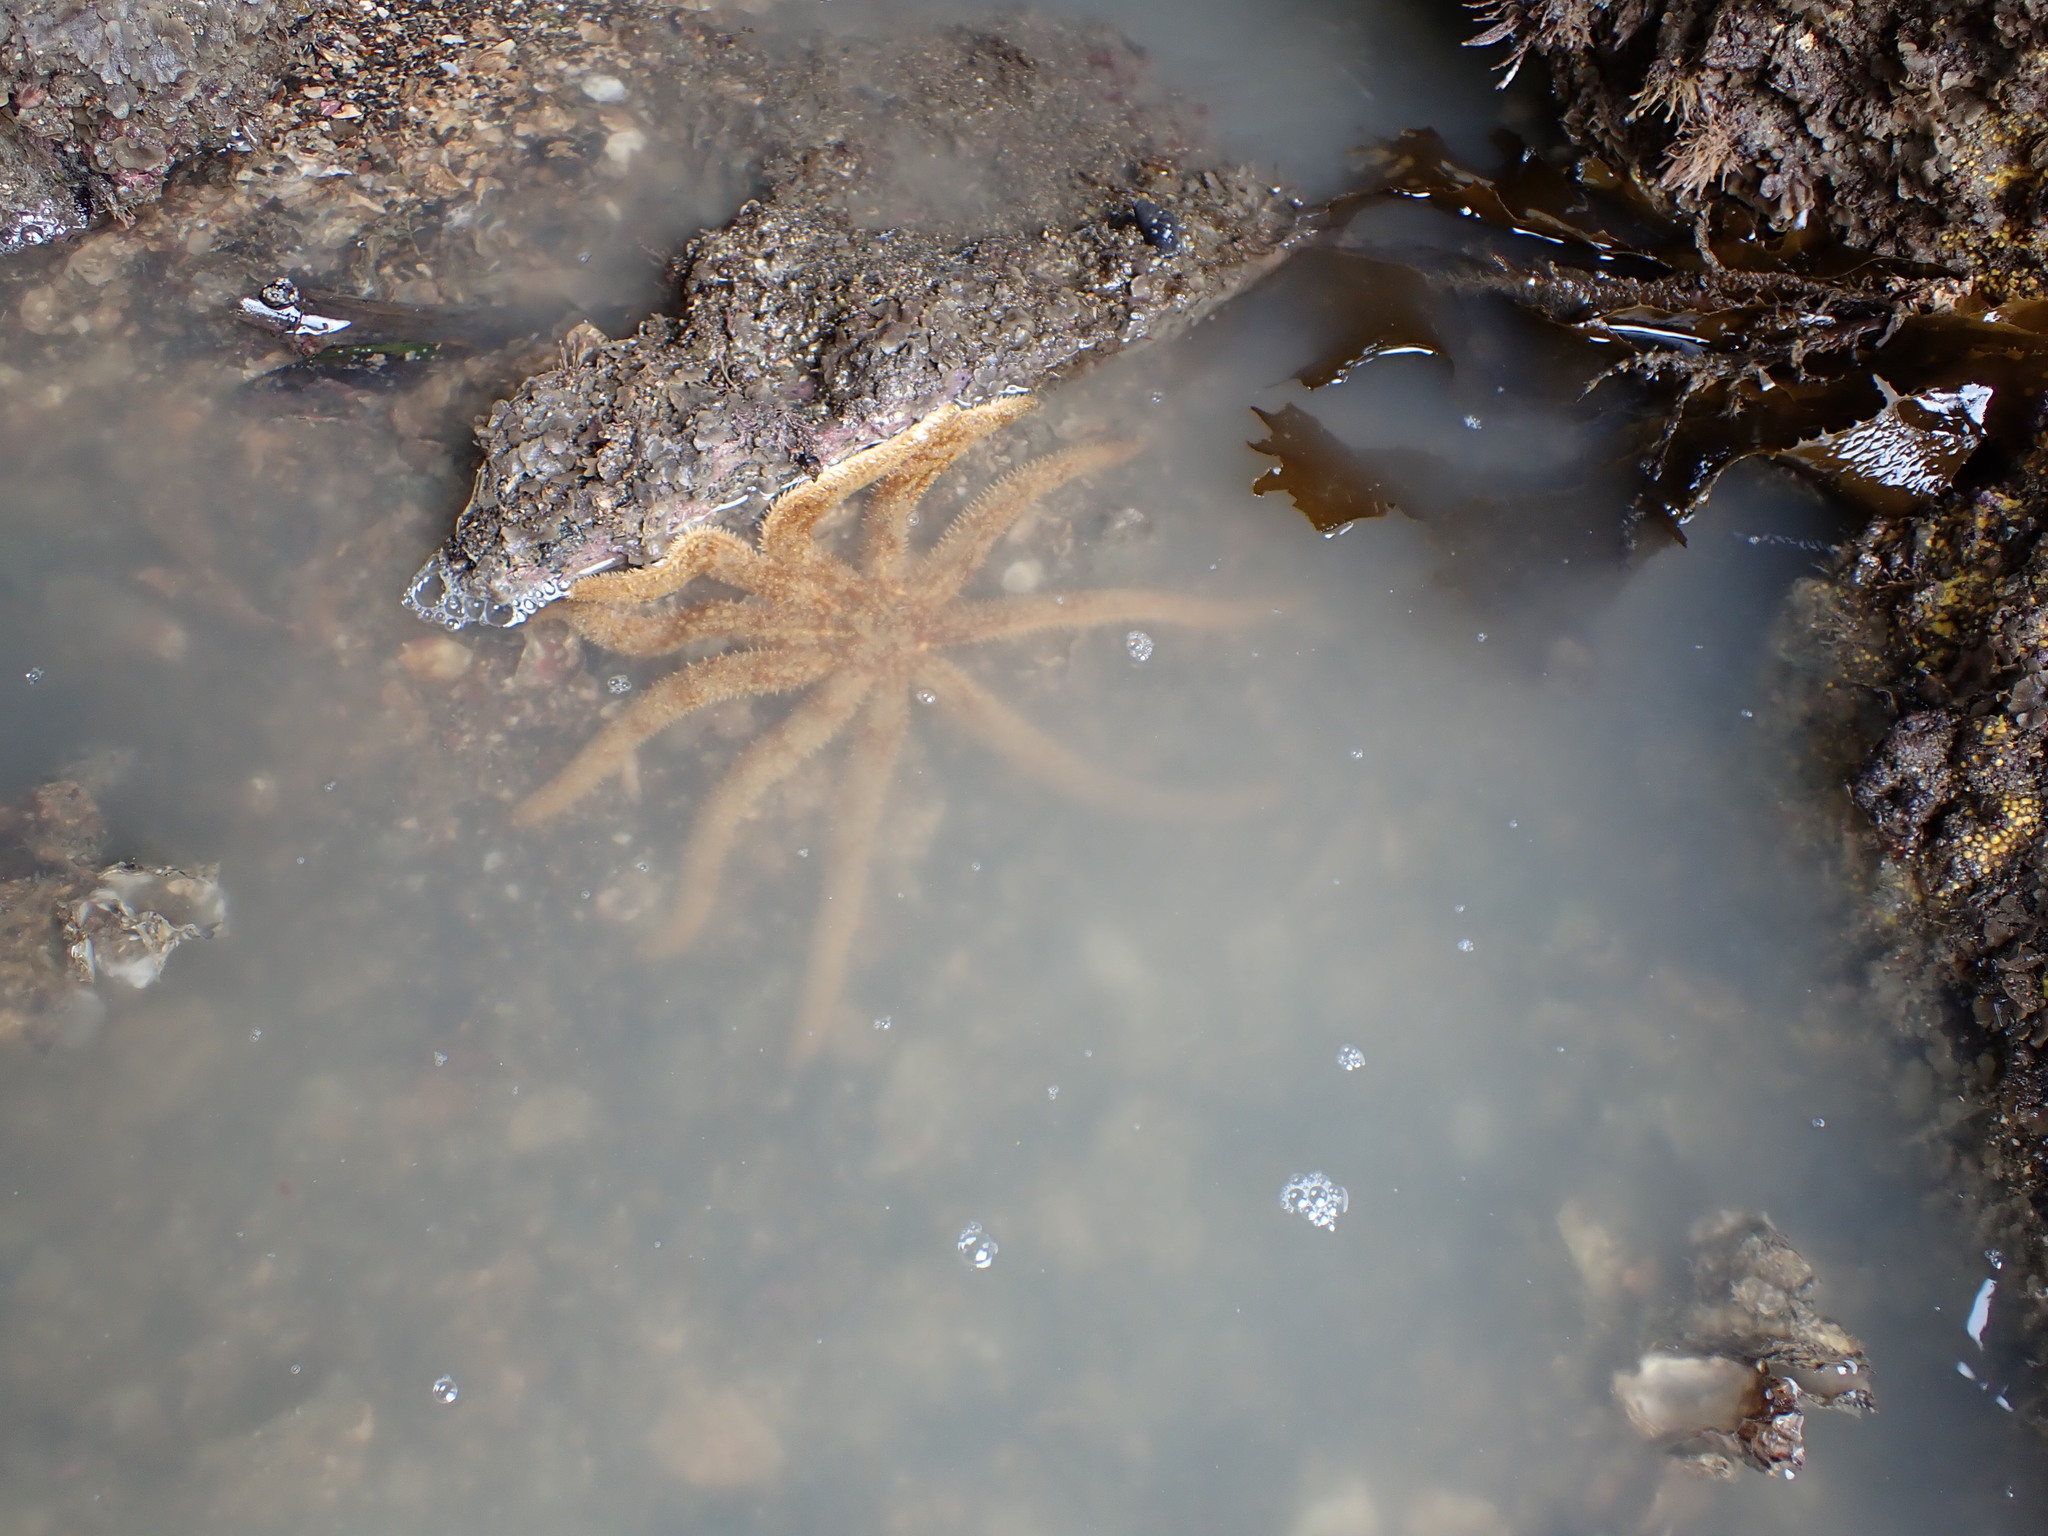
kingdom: Animalia
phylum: Echinodermata
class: Asteroidea
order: Forcipulatida
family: Asteriidae
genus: Coscinasterias
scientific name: Coscinasterias muricata
